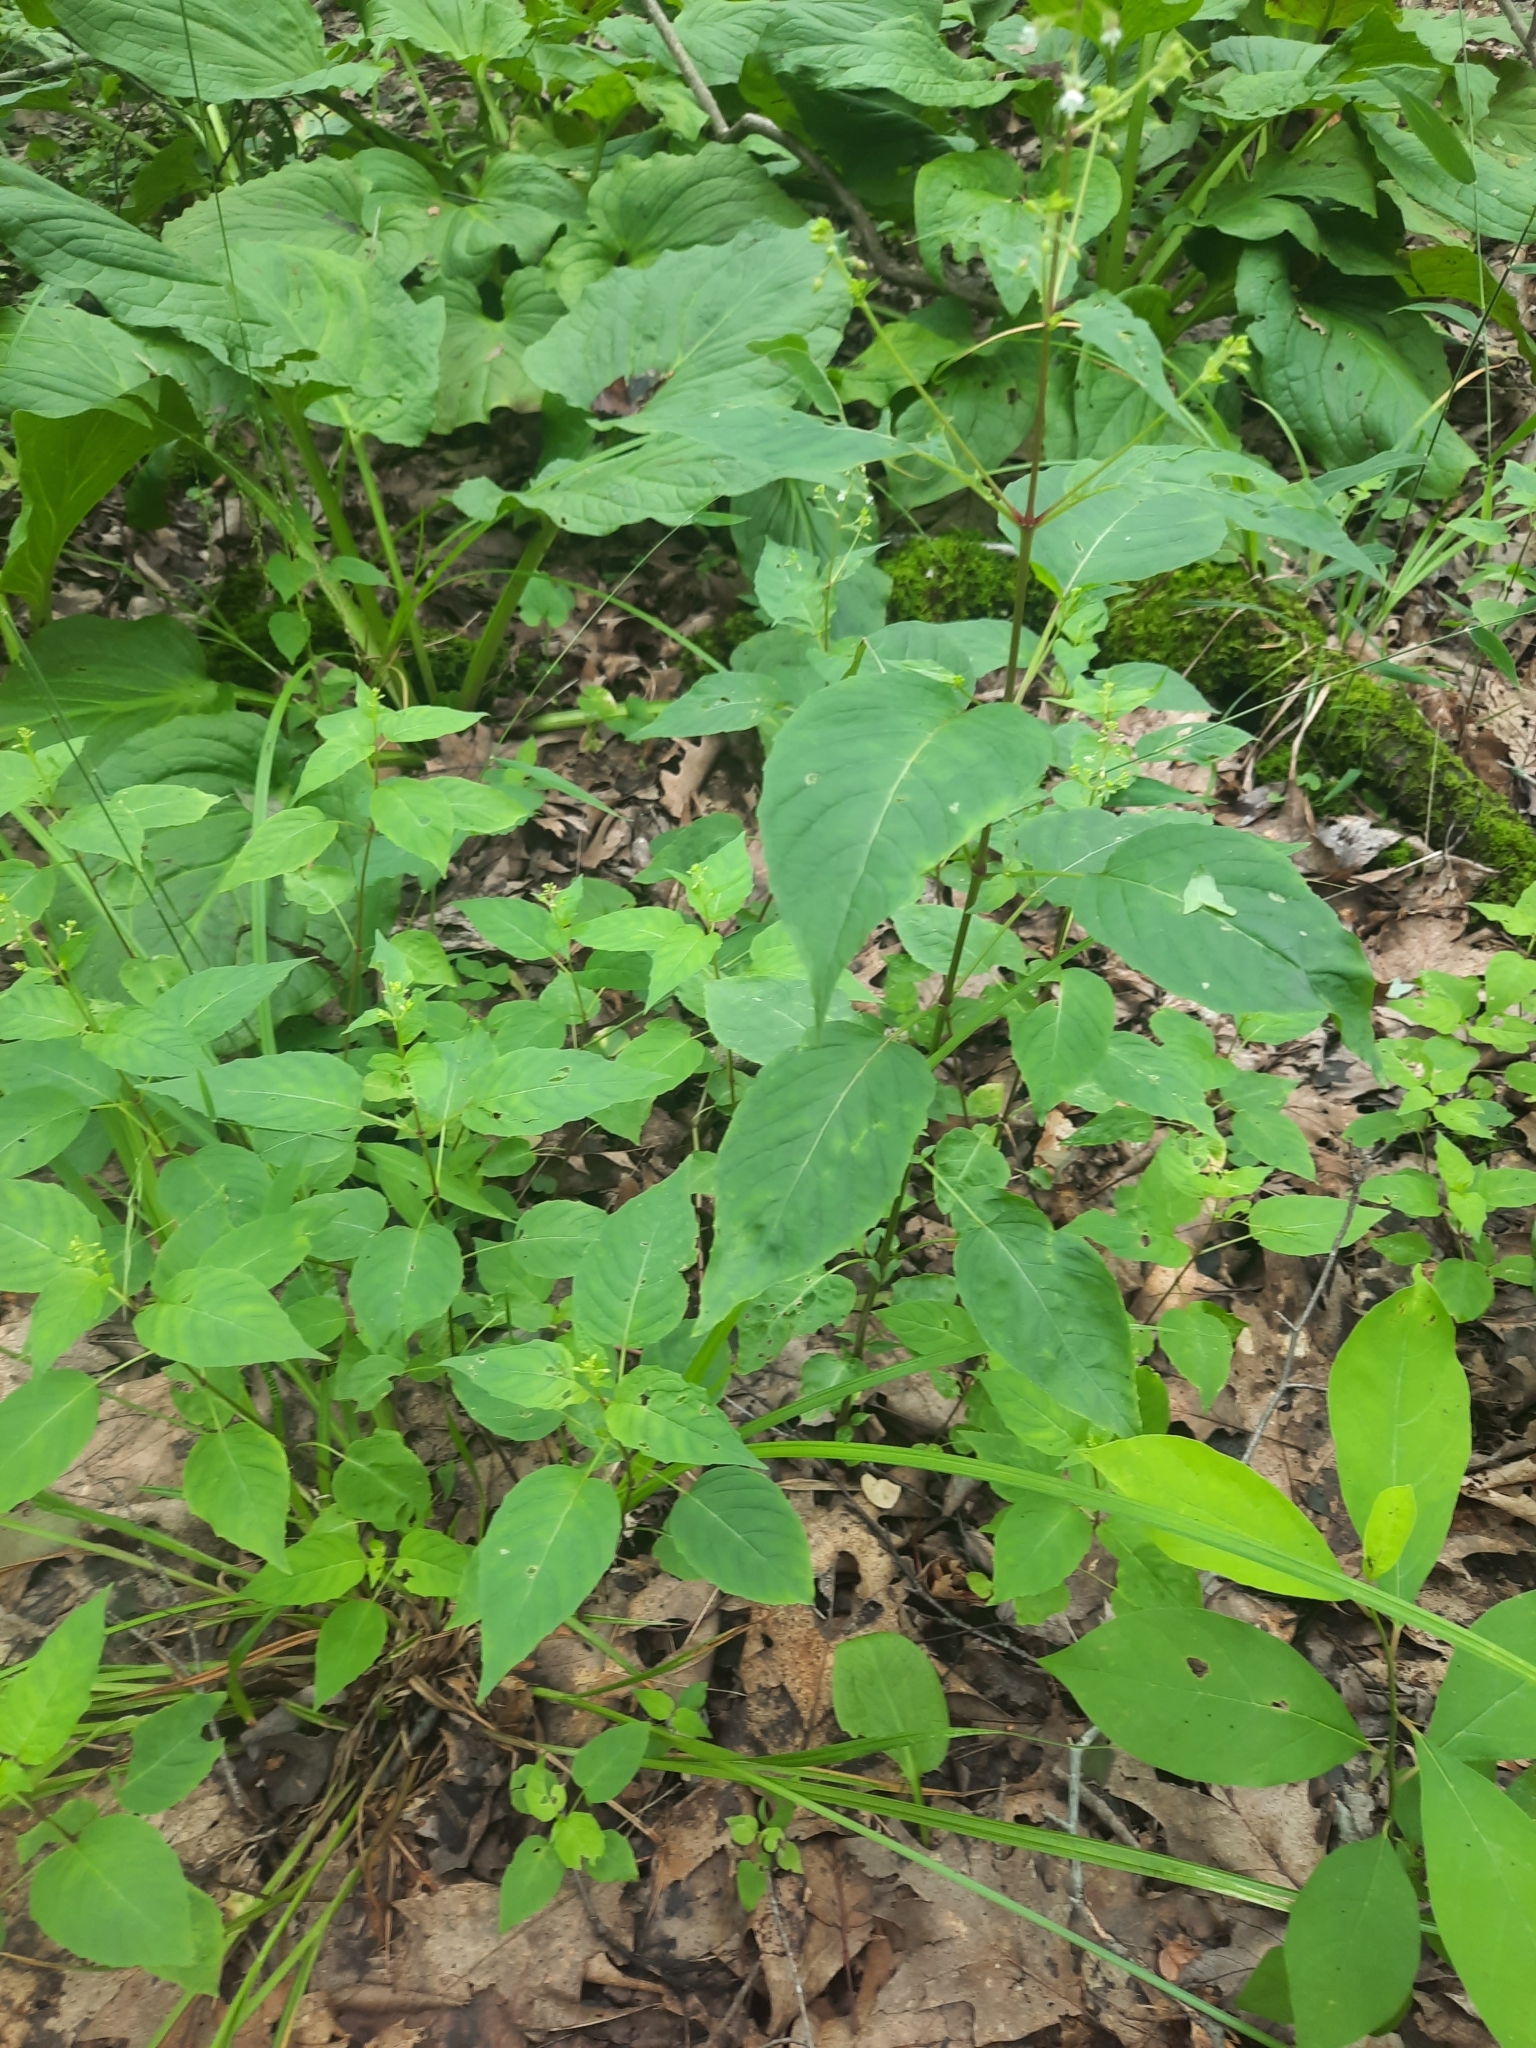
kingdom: Plantae
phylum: Tracheophyta
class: Magnoliopsida
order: Myrtales
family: Onagraceae
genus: Circaea
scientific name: Circaea canadensis
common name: Broad-leaved enchanter's nightshade
